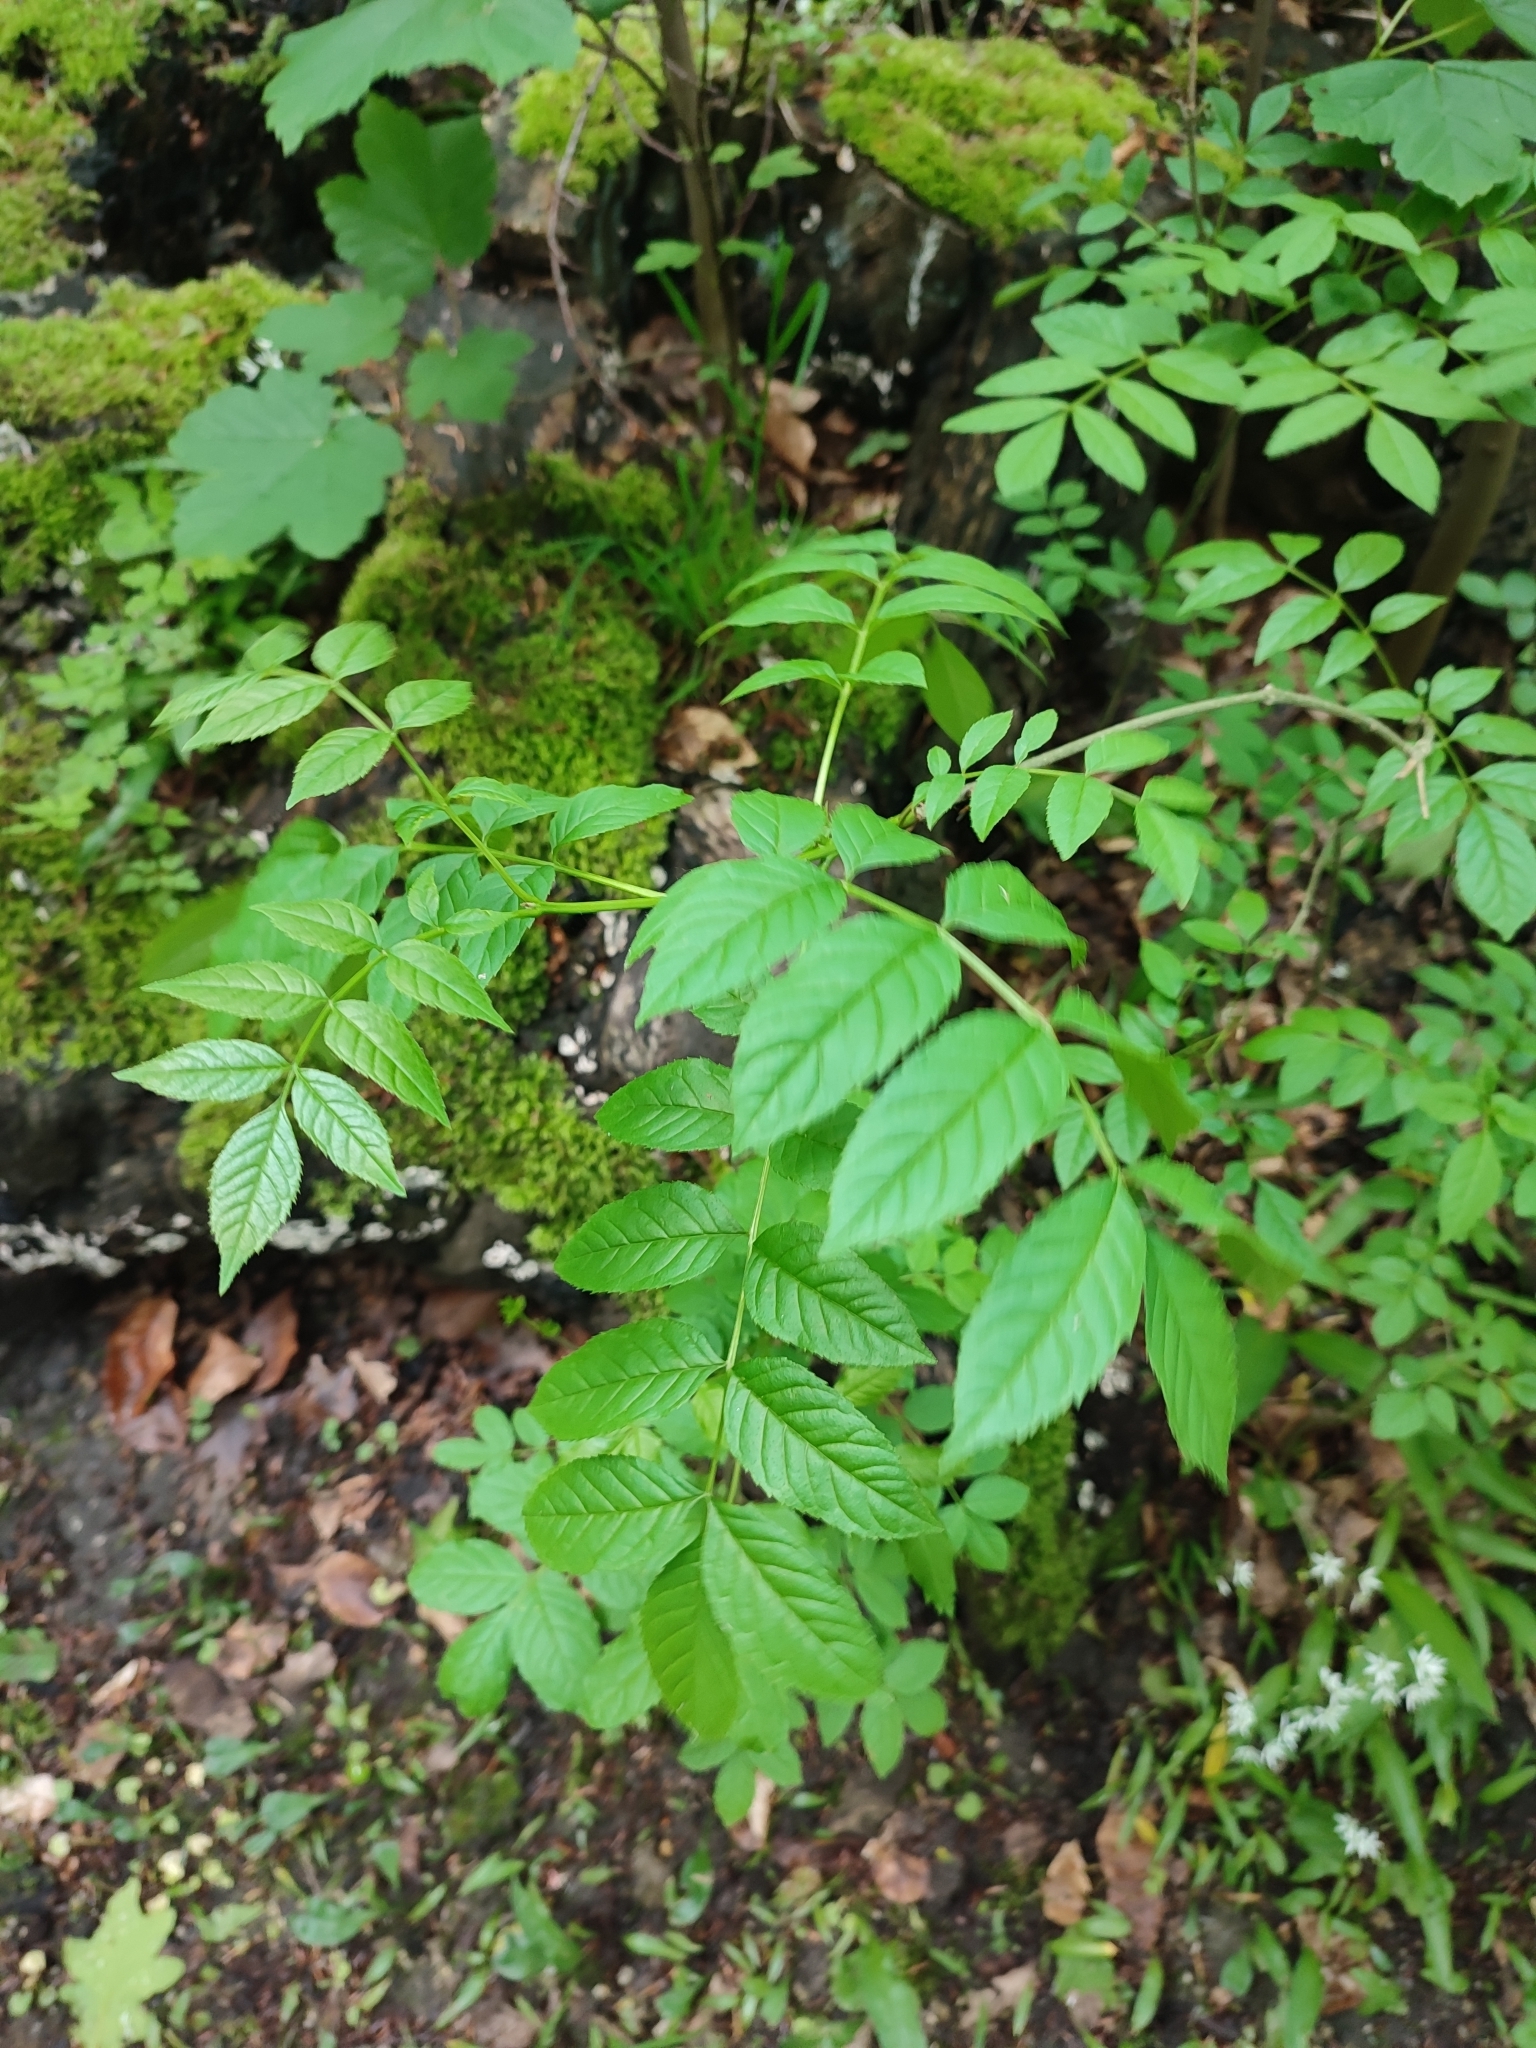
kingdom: Plantae
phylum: Tracheophyta
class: Magnoliopsida
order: Lamiales
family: Oleaceae
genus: Fraxinus
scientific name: Fraxinus excelsior
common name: European ash
